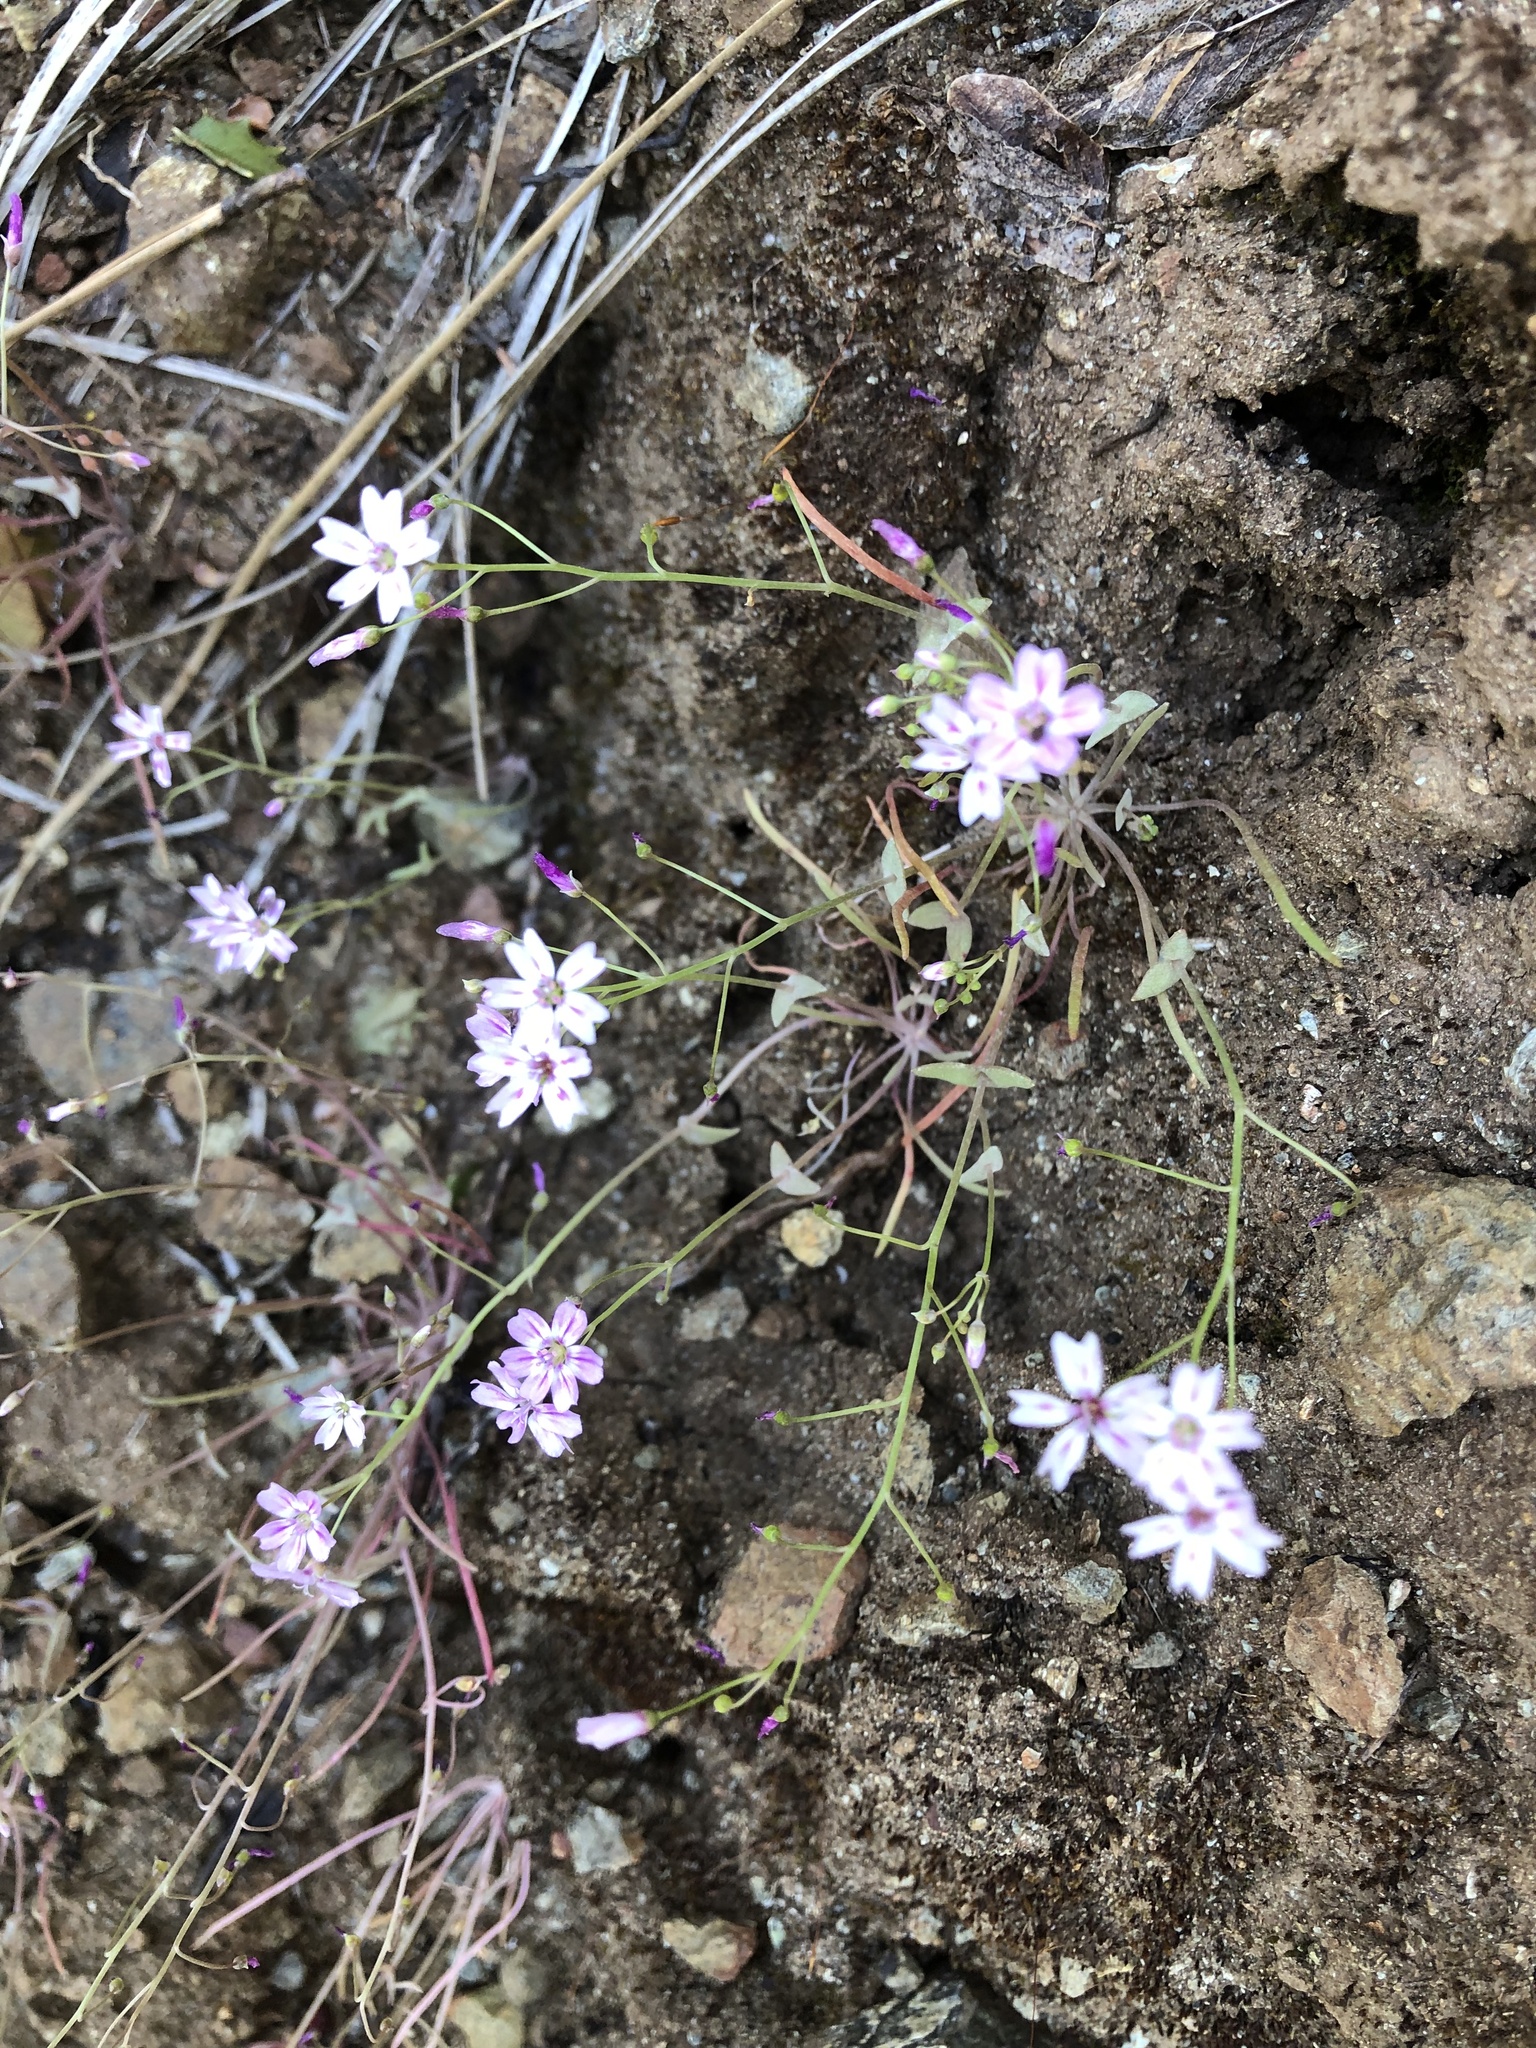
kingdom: Plantae
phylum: Tracheophyta
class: Magnoliopsida
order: Caryophyllales
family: Montiaceae
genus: Claytonia
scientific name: Claytonia gypsophiloides
